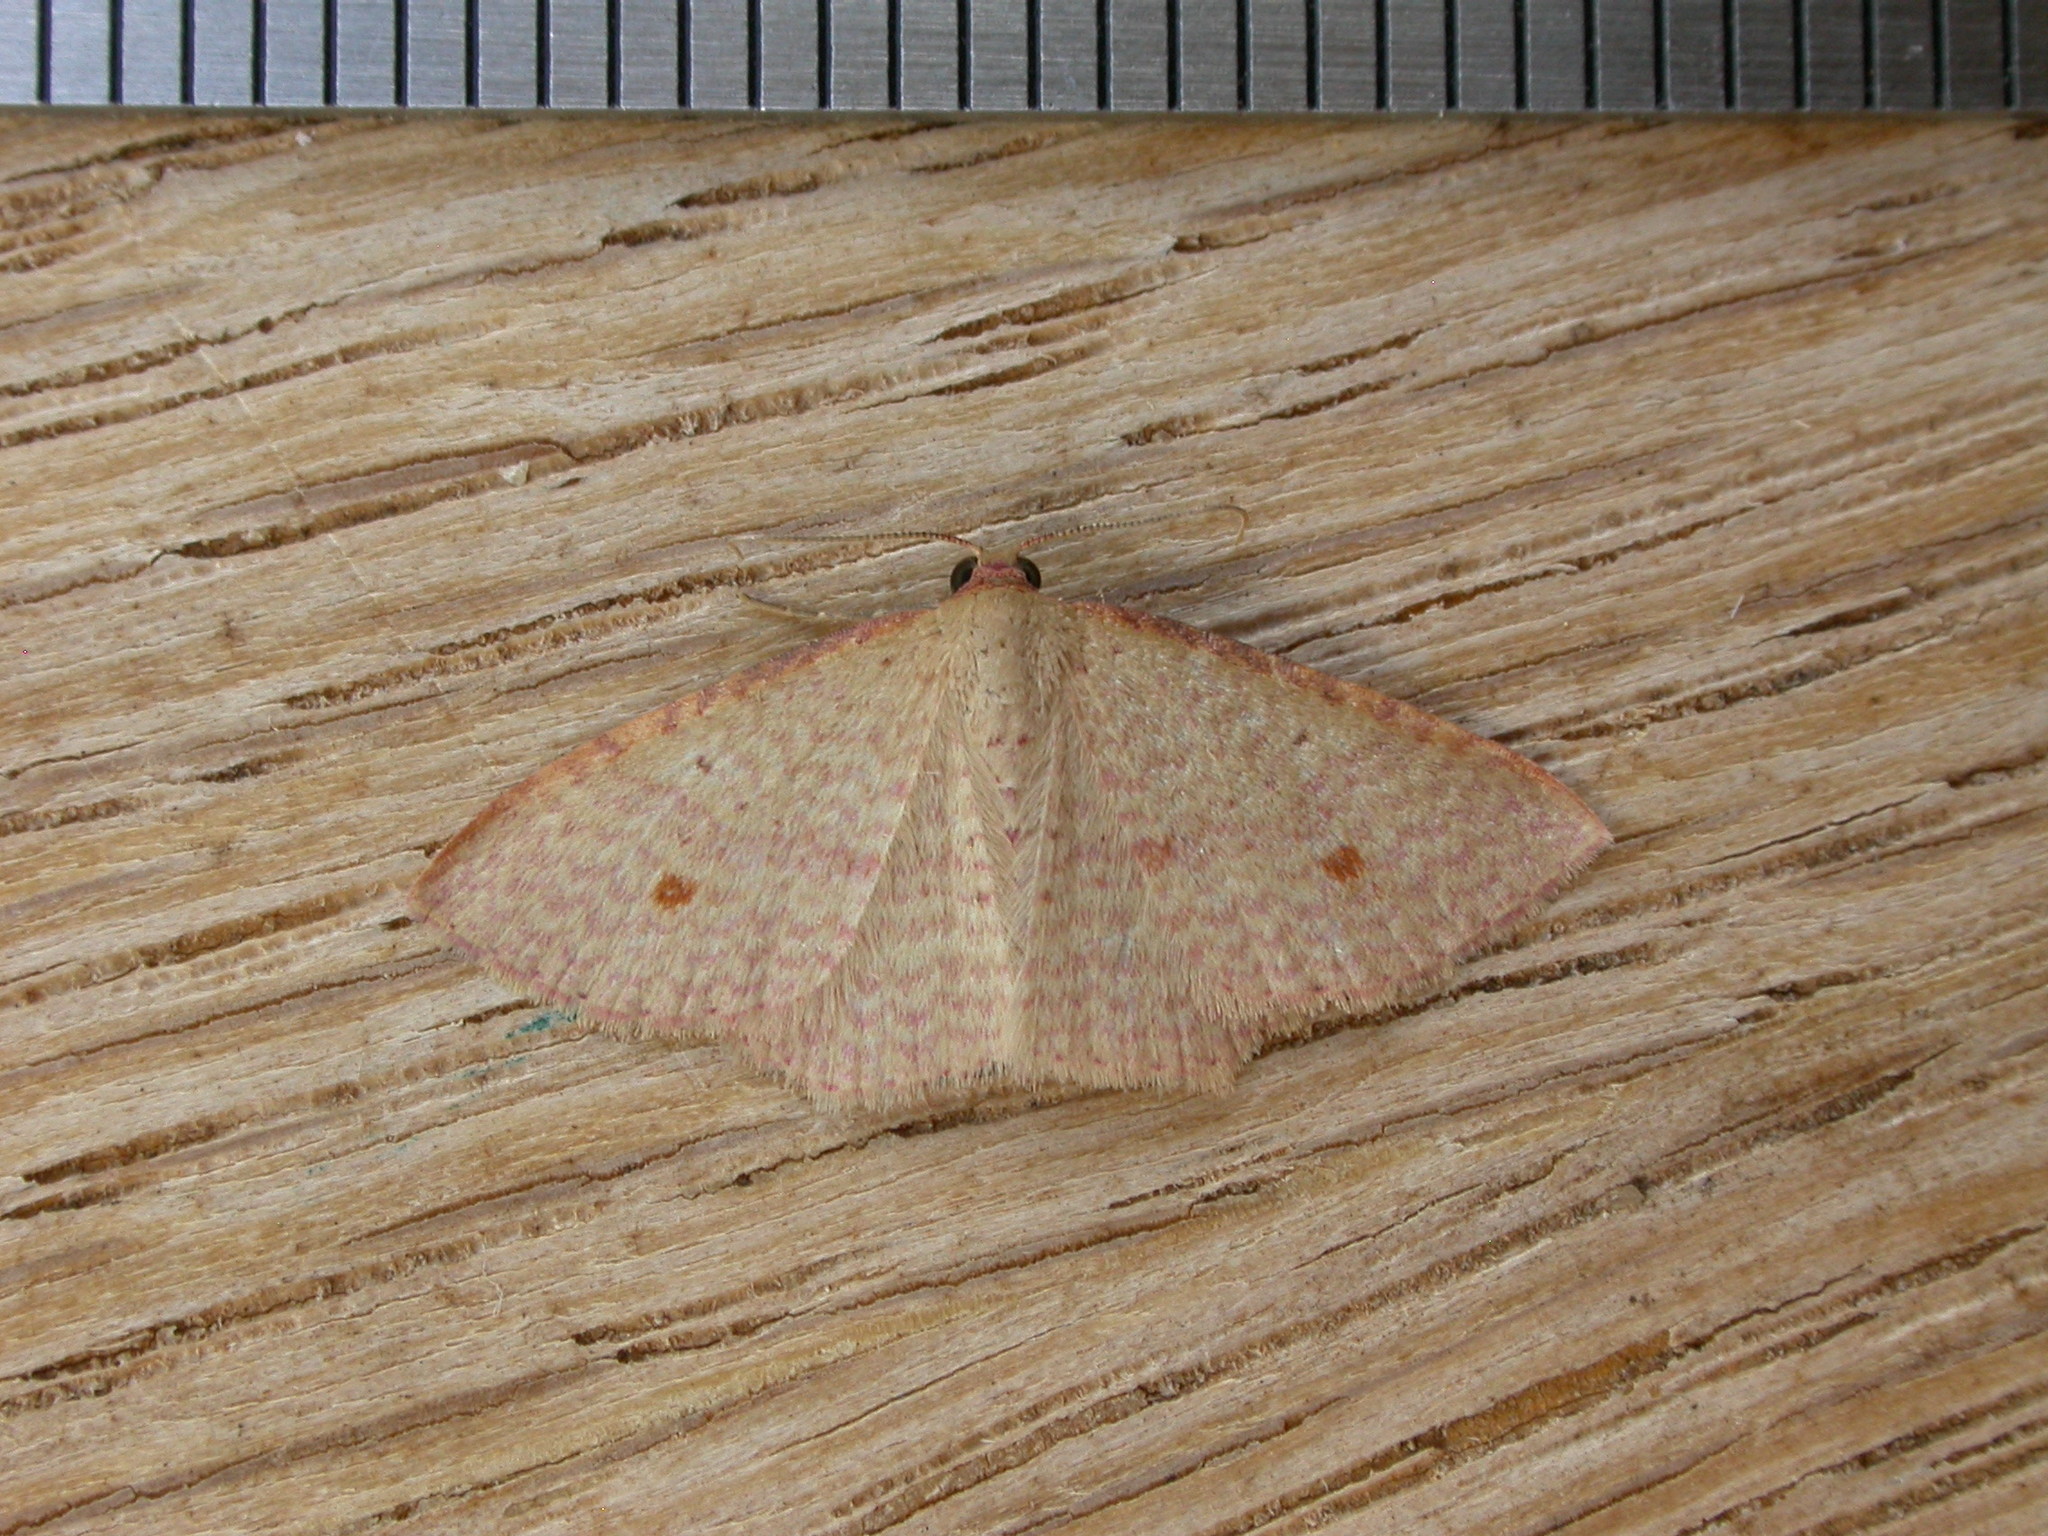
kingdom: Animalia
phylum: Arthropoda
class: Insecta
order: Lepidoptera
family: Geometridae
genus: Epicyme
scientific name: Epicyme rubropunctaria
